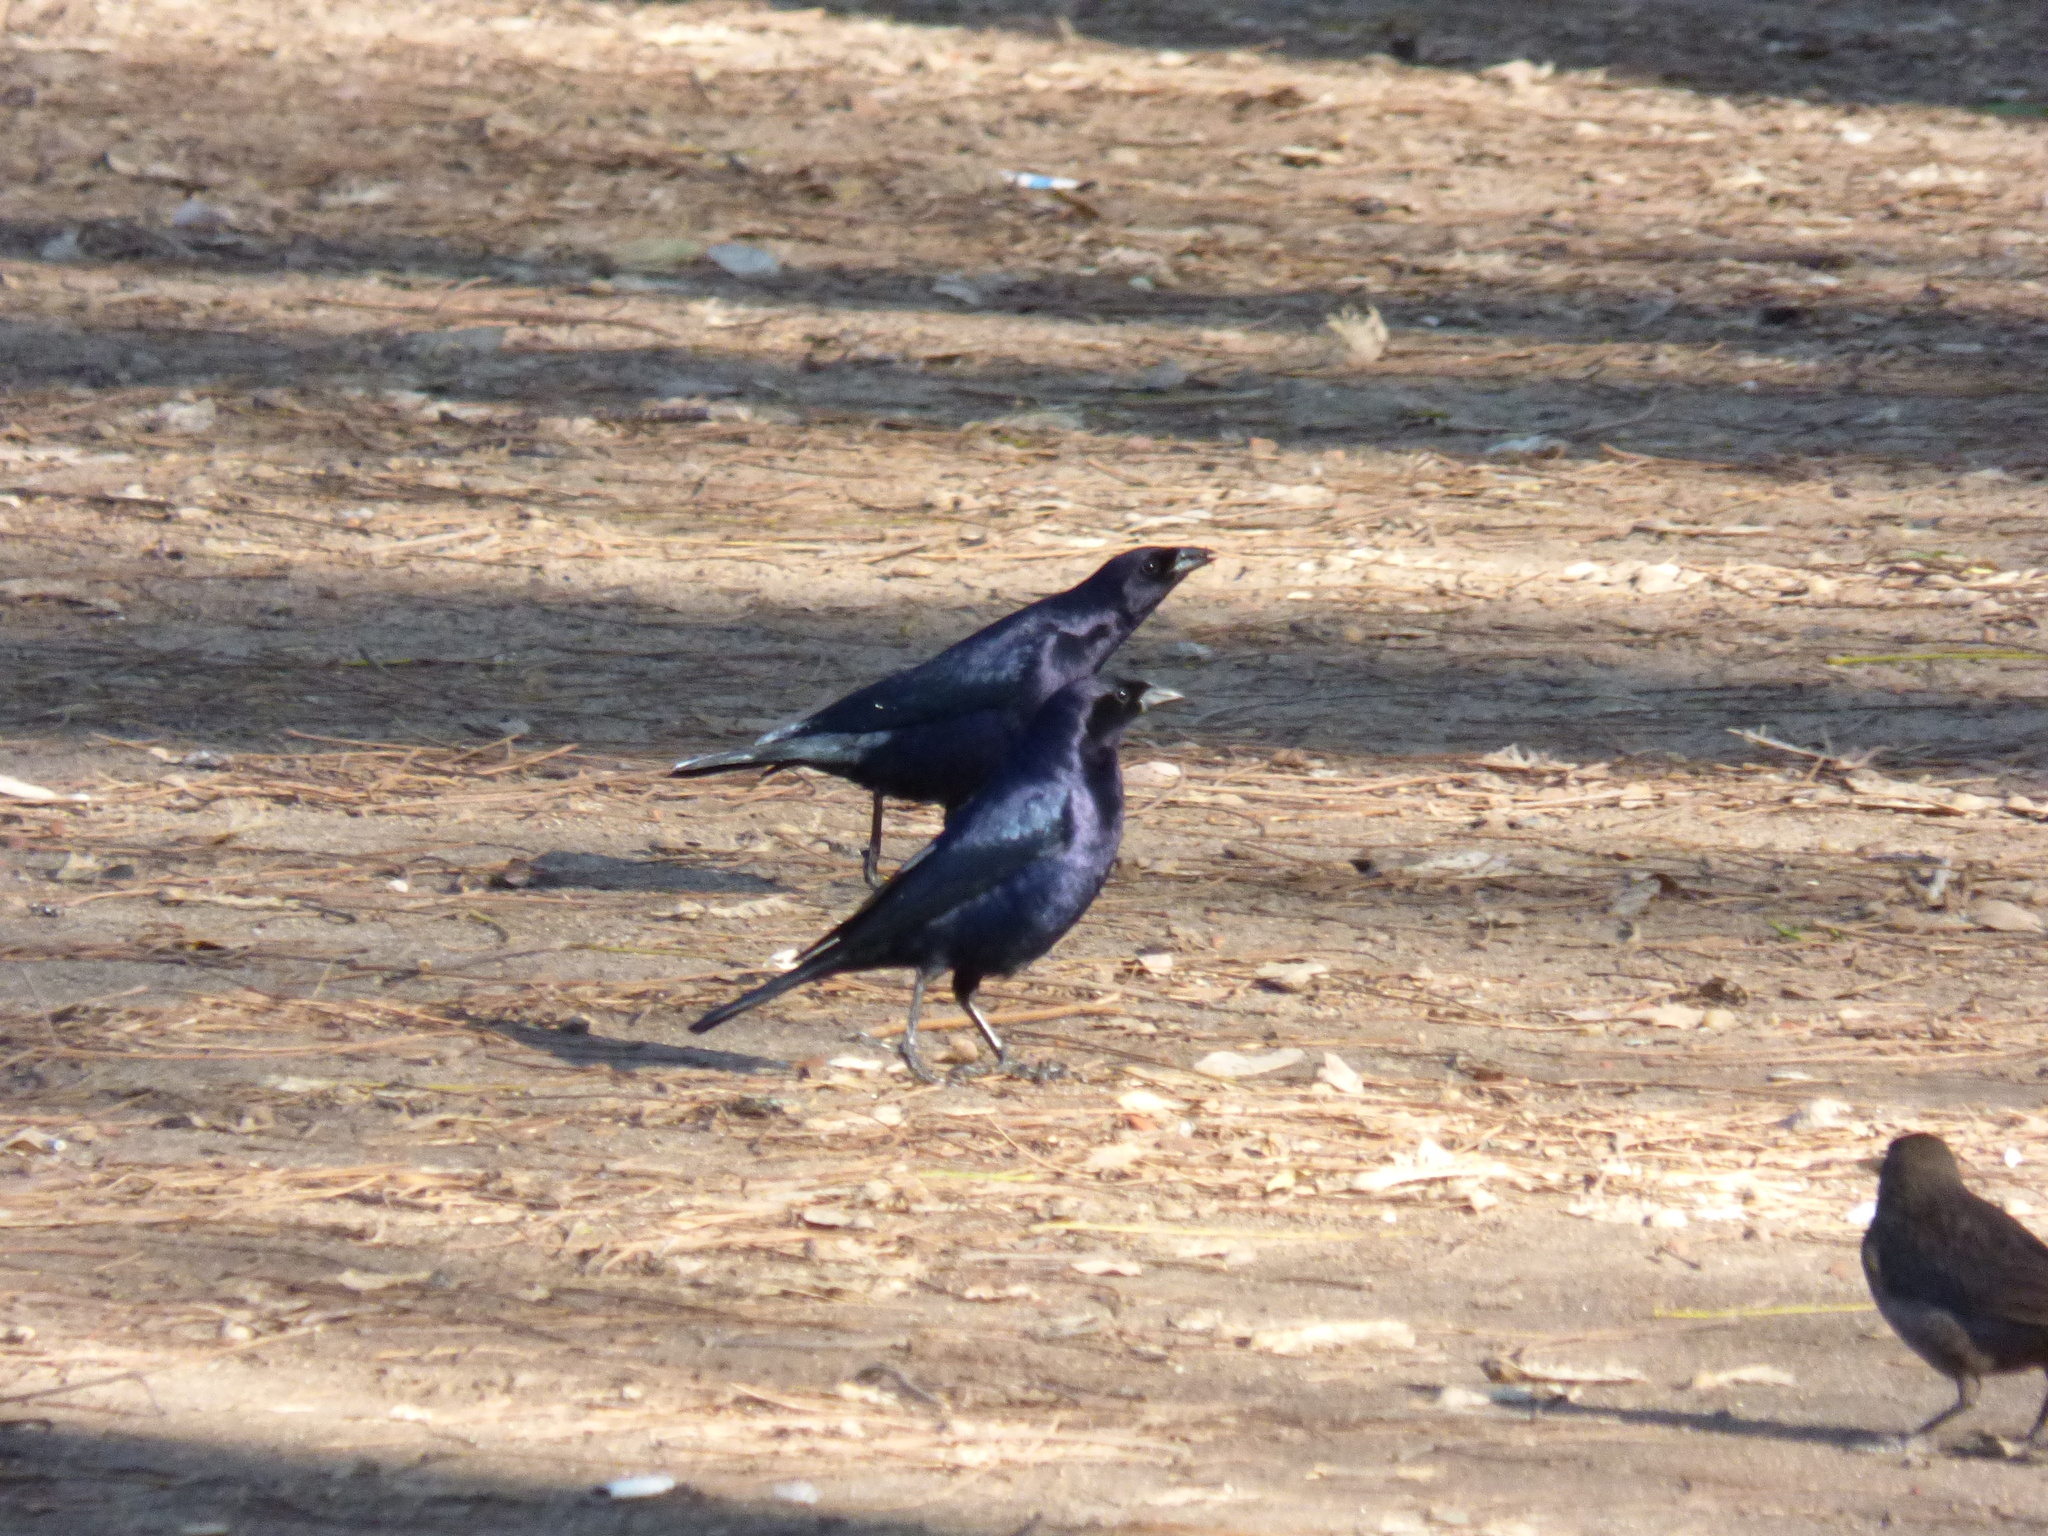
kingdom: Animalia
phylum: Chordata
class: Aves
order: Passeriformes
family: Icteridae
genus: Molothrus
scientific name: Molothrus bonariensis
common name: Shiny cowbird
